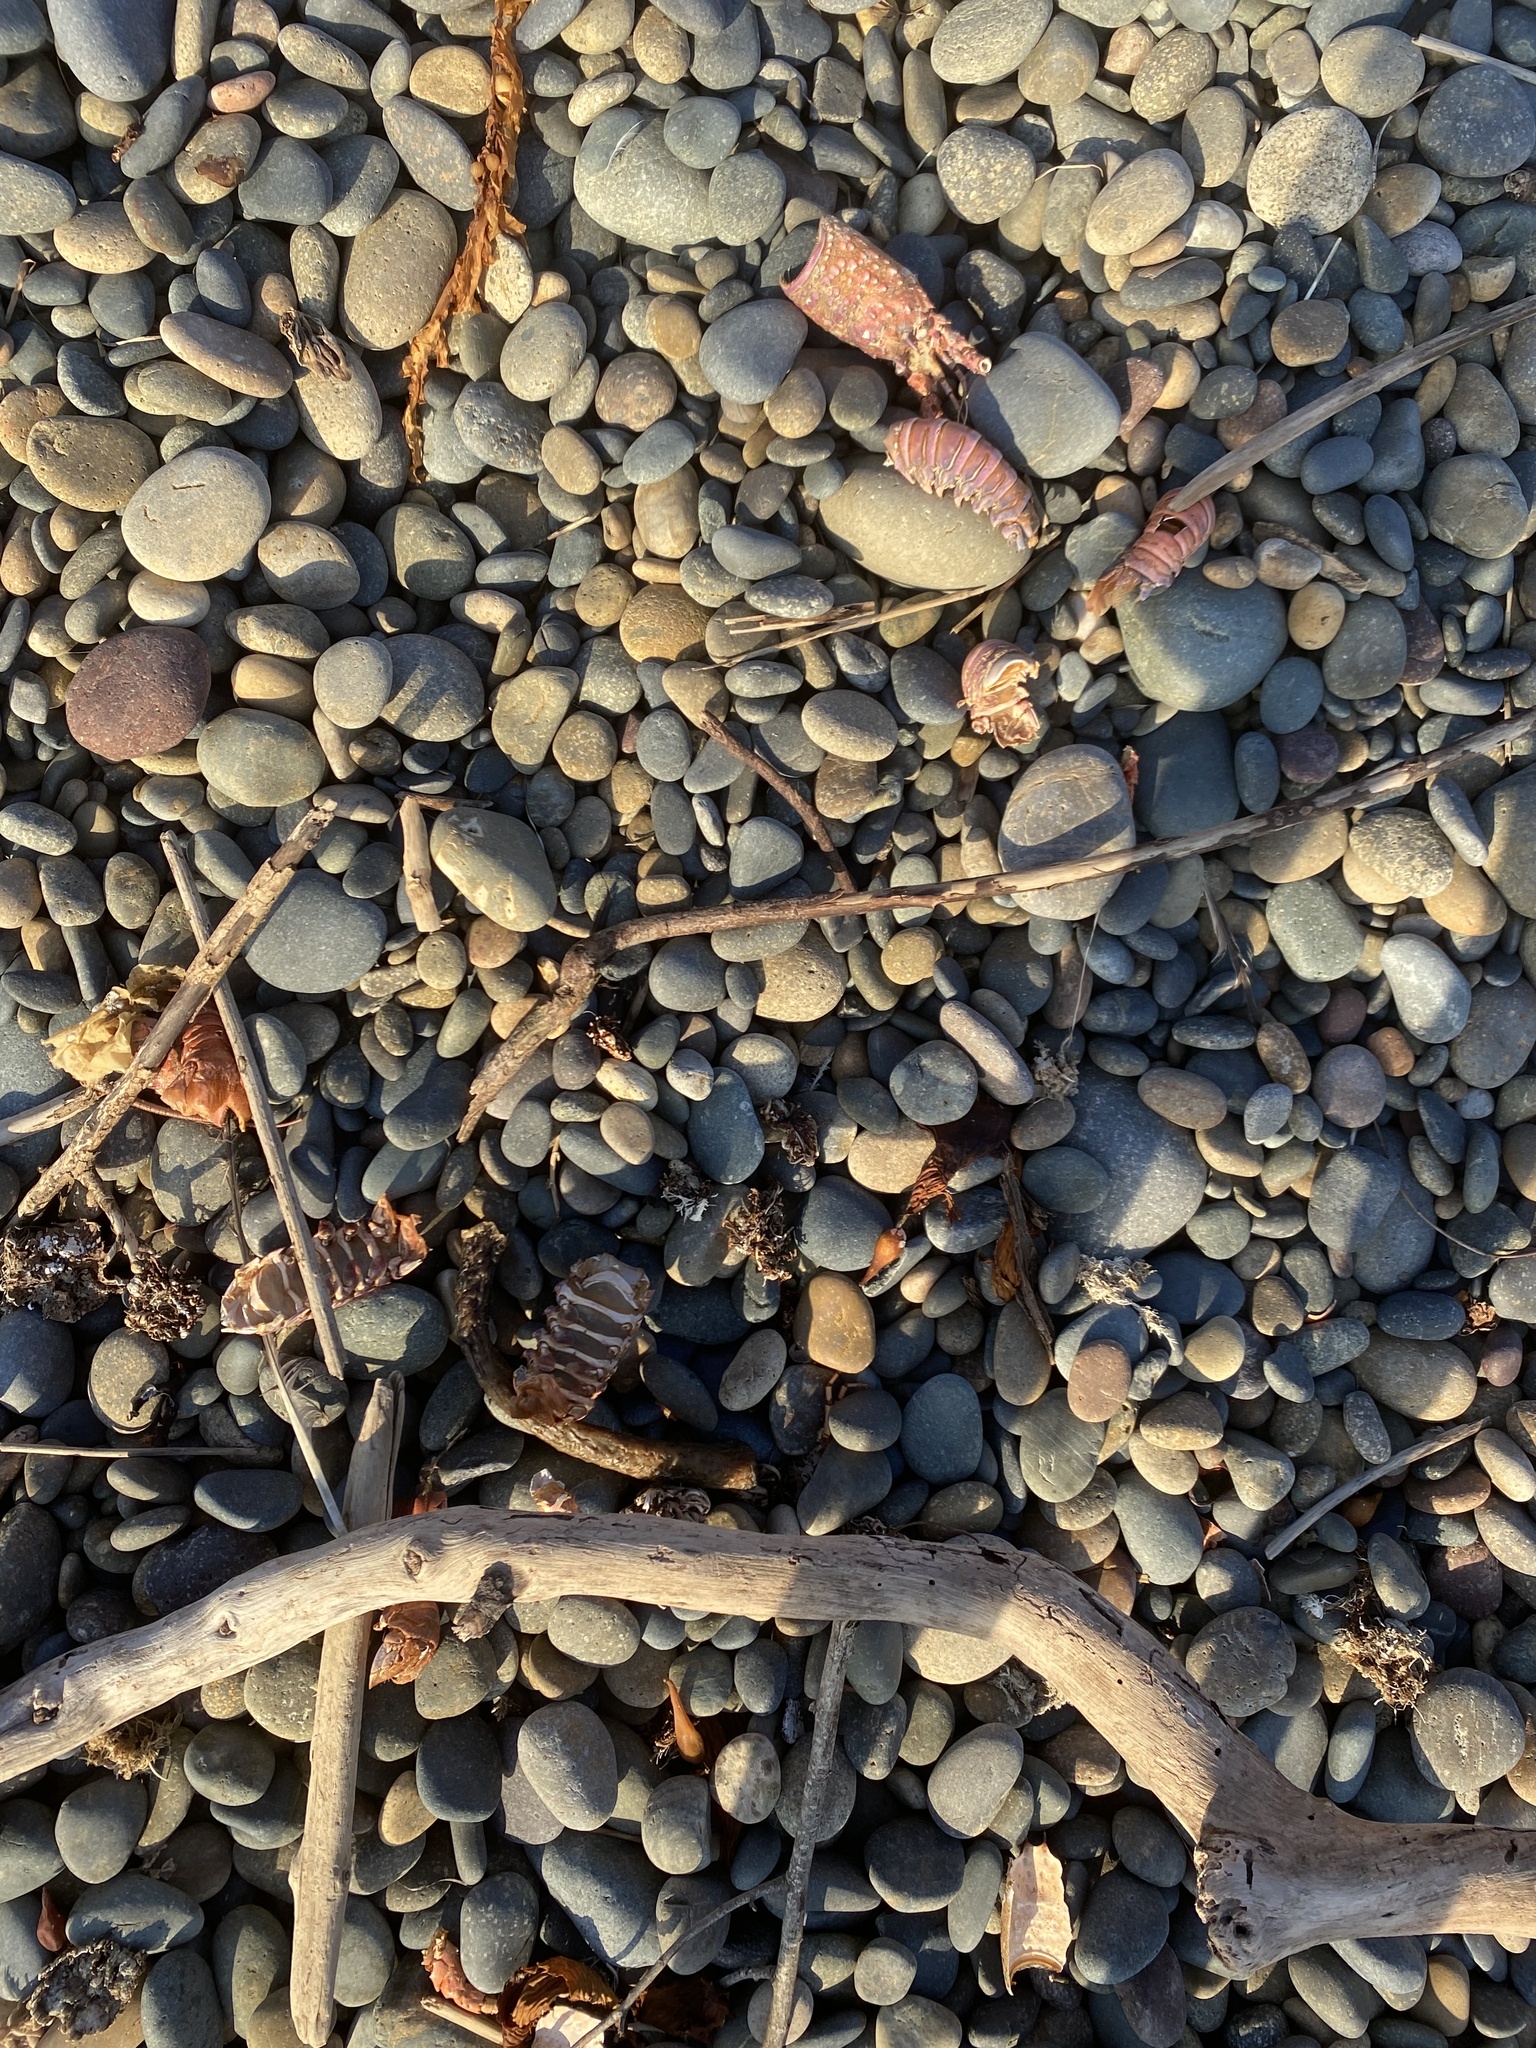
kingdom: Animalia
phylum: Arthropoda
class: Malacostraca
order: Decapoda
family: Palinuridae
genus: Panulirus
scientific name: Panulirus interruptus
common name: California spiny lobster
